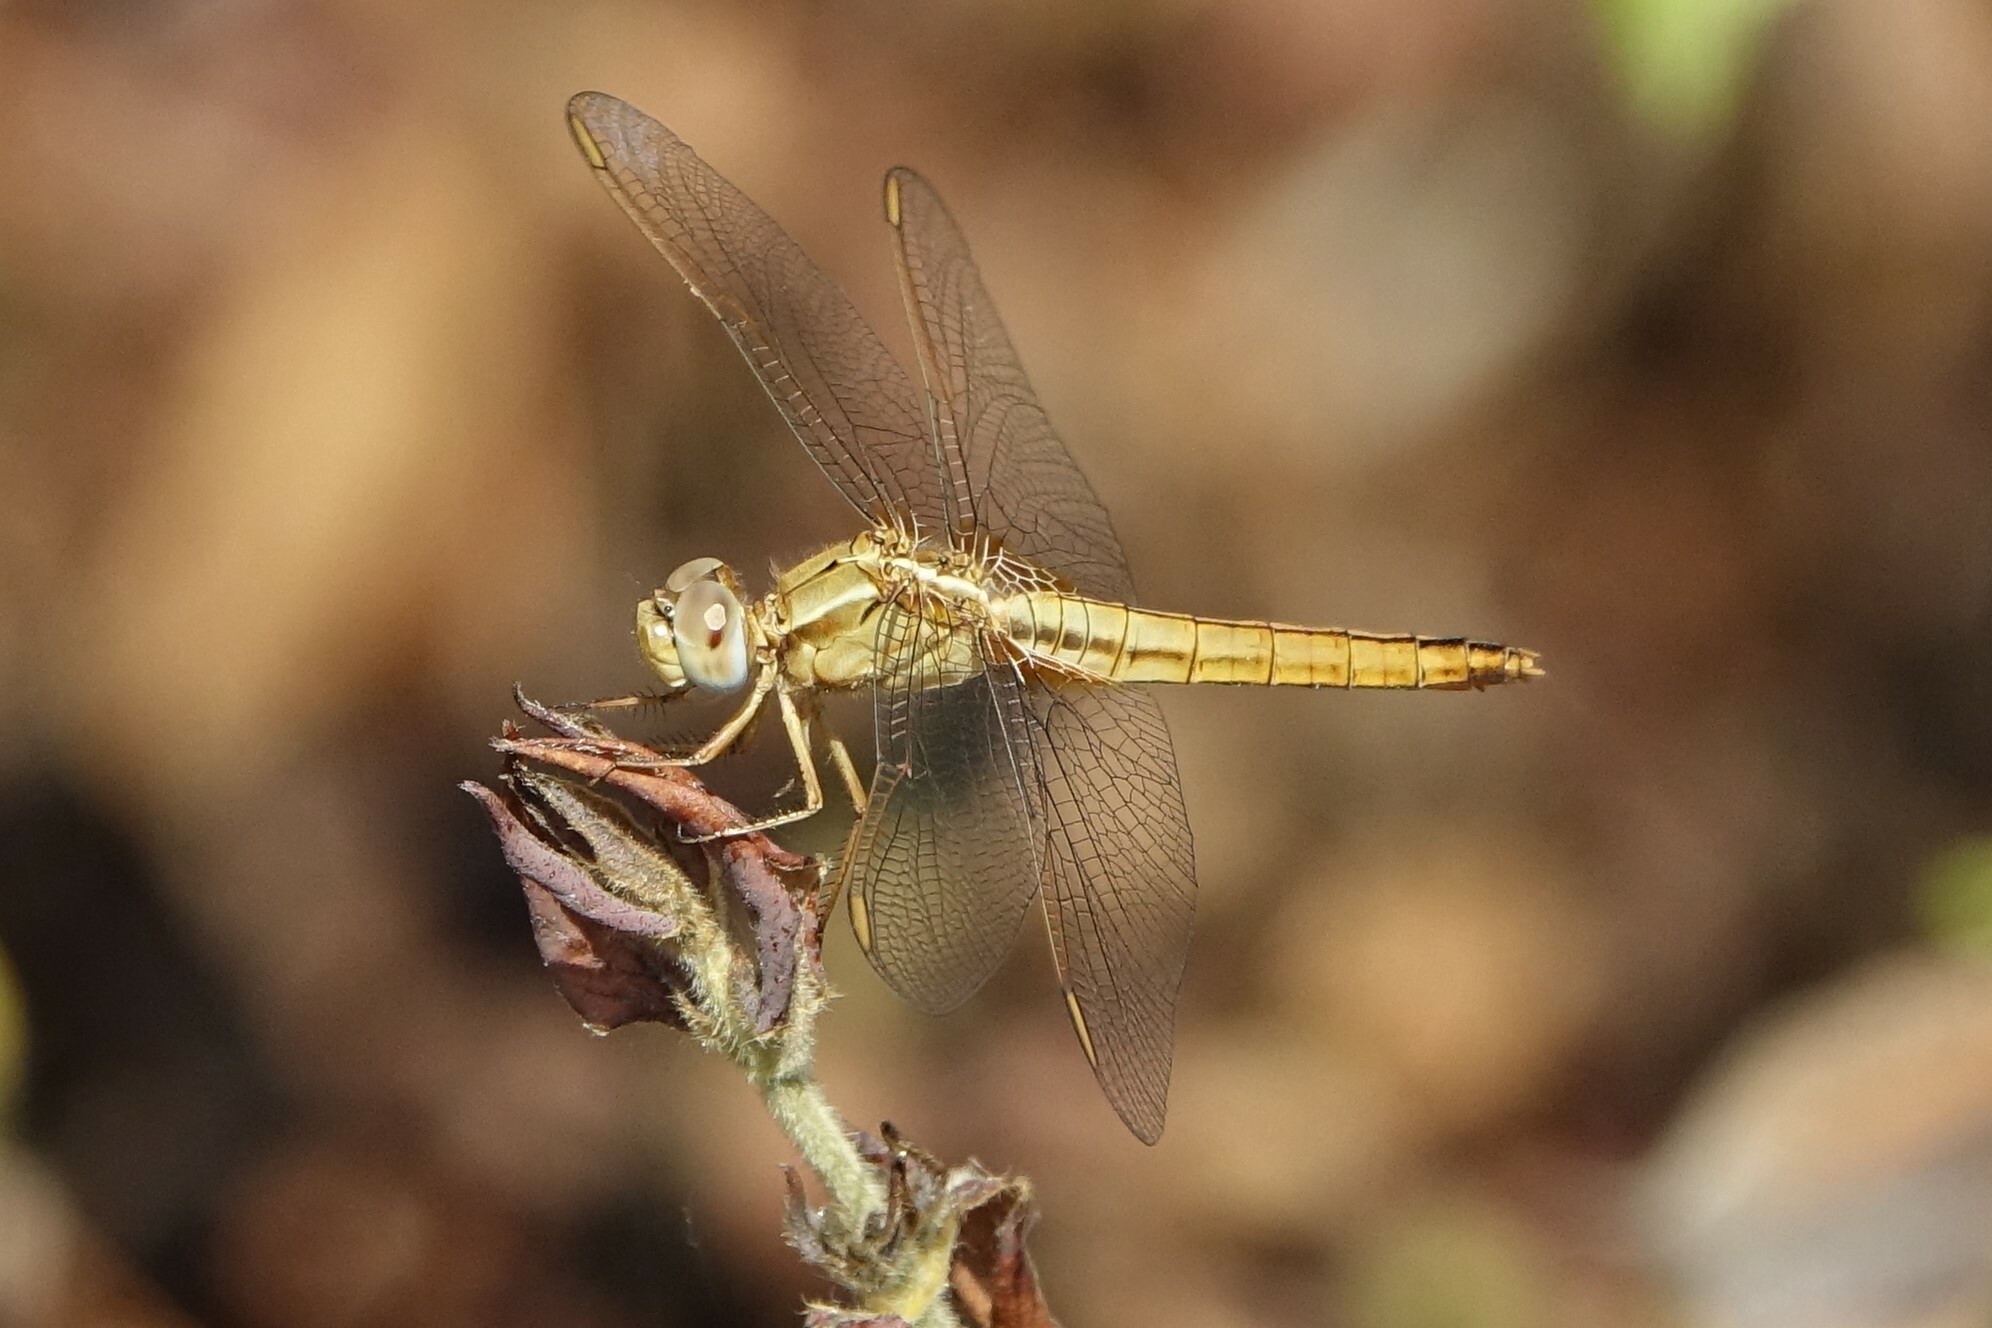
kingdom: Animalia
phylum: Arthropoda
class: Insecta
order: Odonata
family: Libellulidae
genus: Crocothemis
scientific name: Crocothemis erythraea
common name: Scarlet dragonfly
